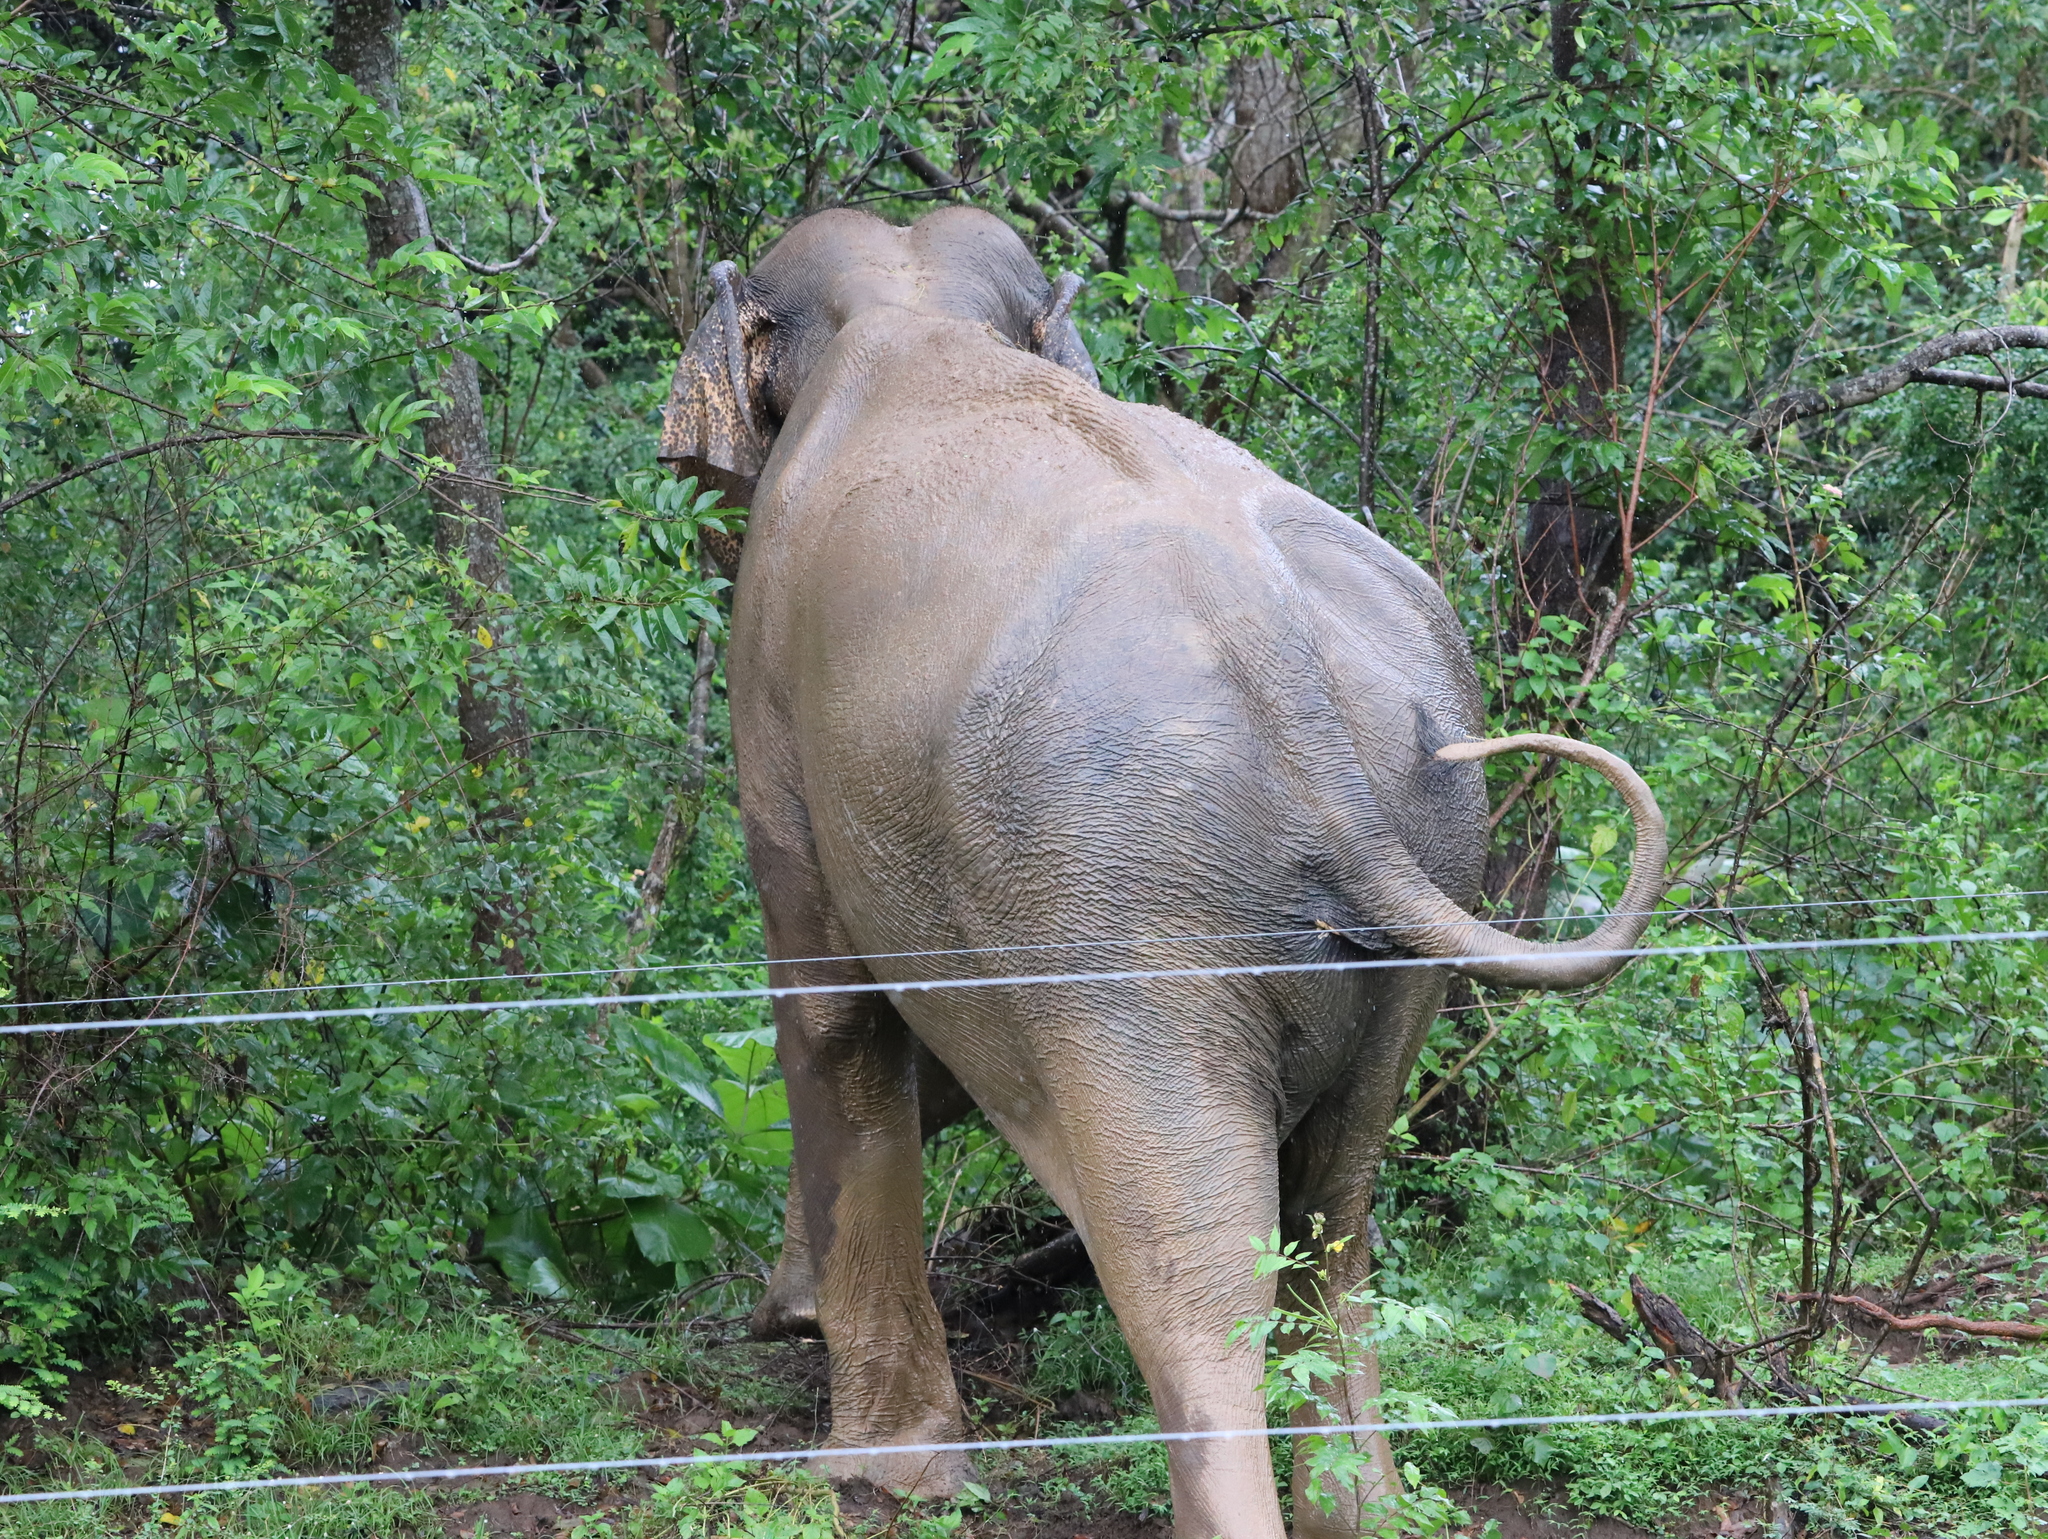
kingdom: Animalia
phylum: Chordata
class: Mammalia
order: Proboscidea
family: Elephantidae
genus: Elephas
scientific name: Elephas maximus
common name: Asian elephant
